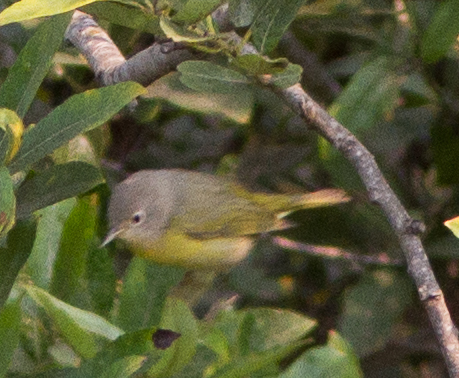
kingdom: Animalia
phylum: Chordata
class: Aves
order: Passeriformes
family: Parulidae
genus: Leiothlypis
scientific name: Leiothlypis ruficapilla
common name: Nashville warbler
